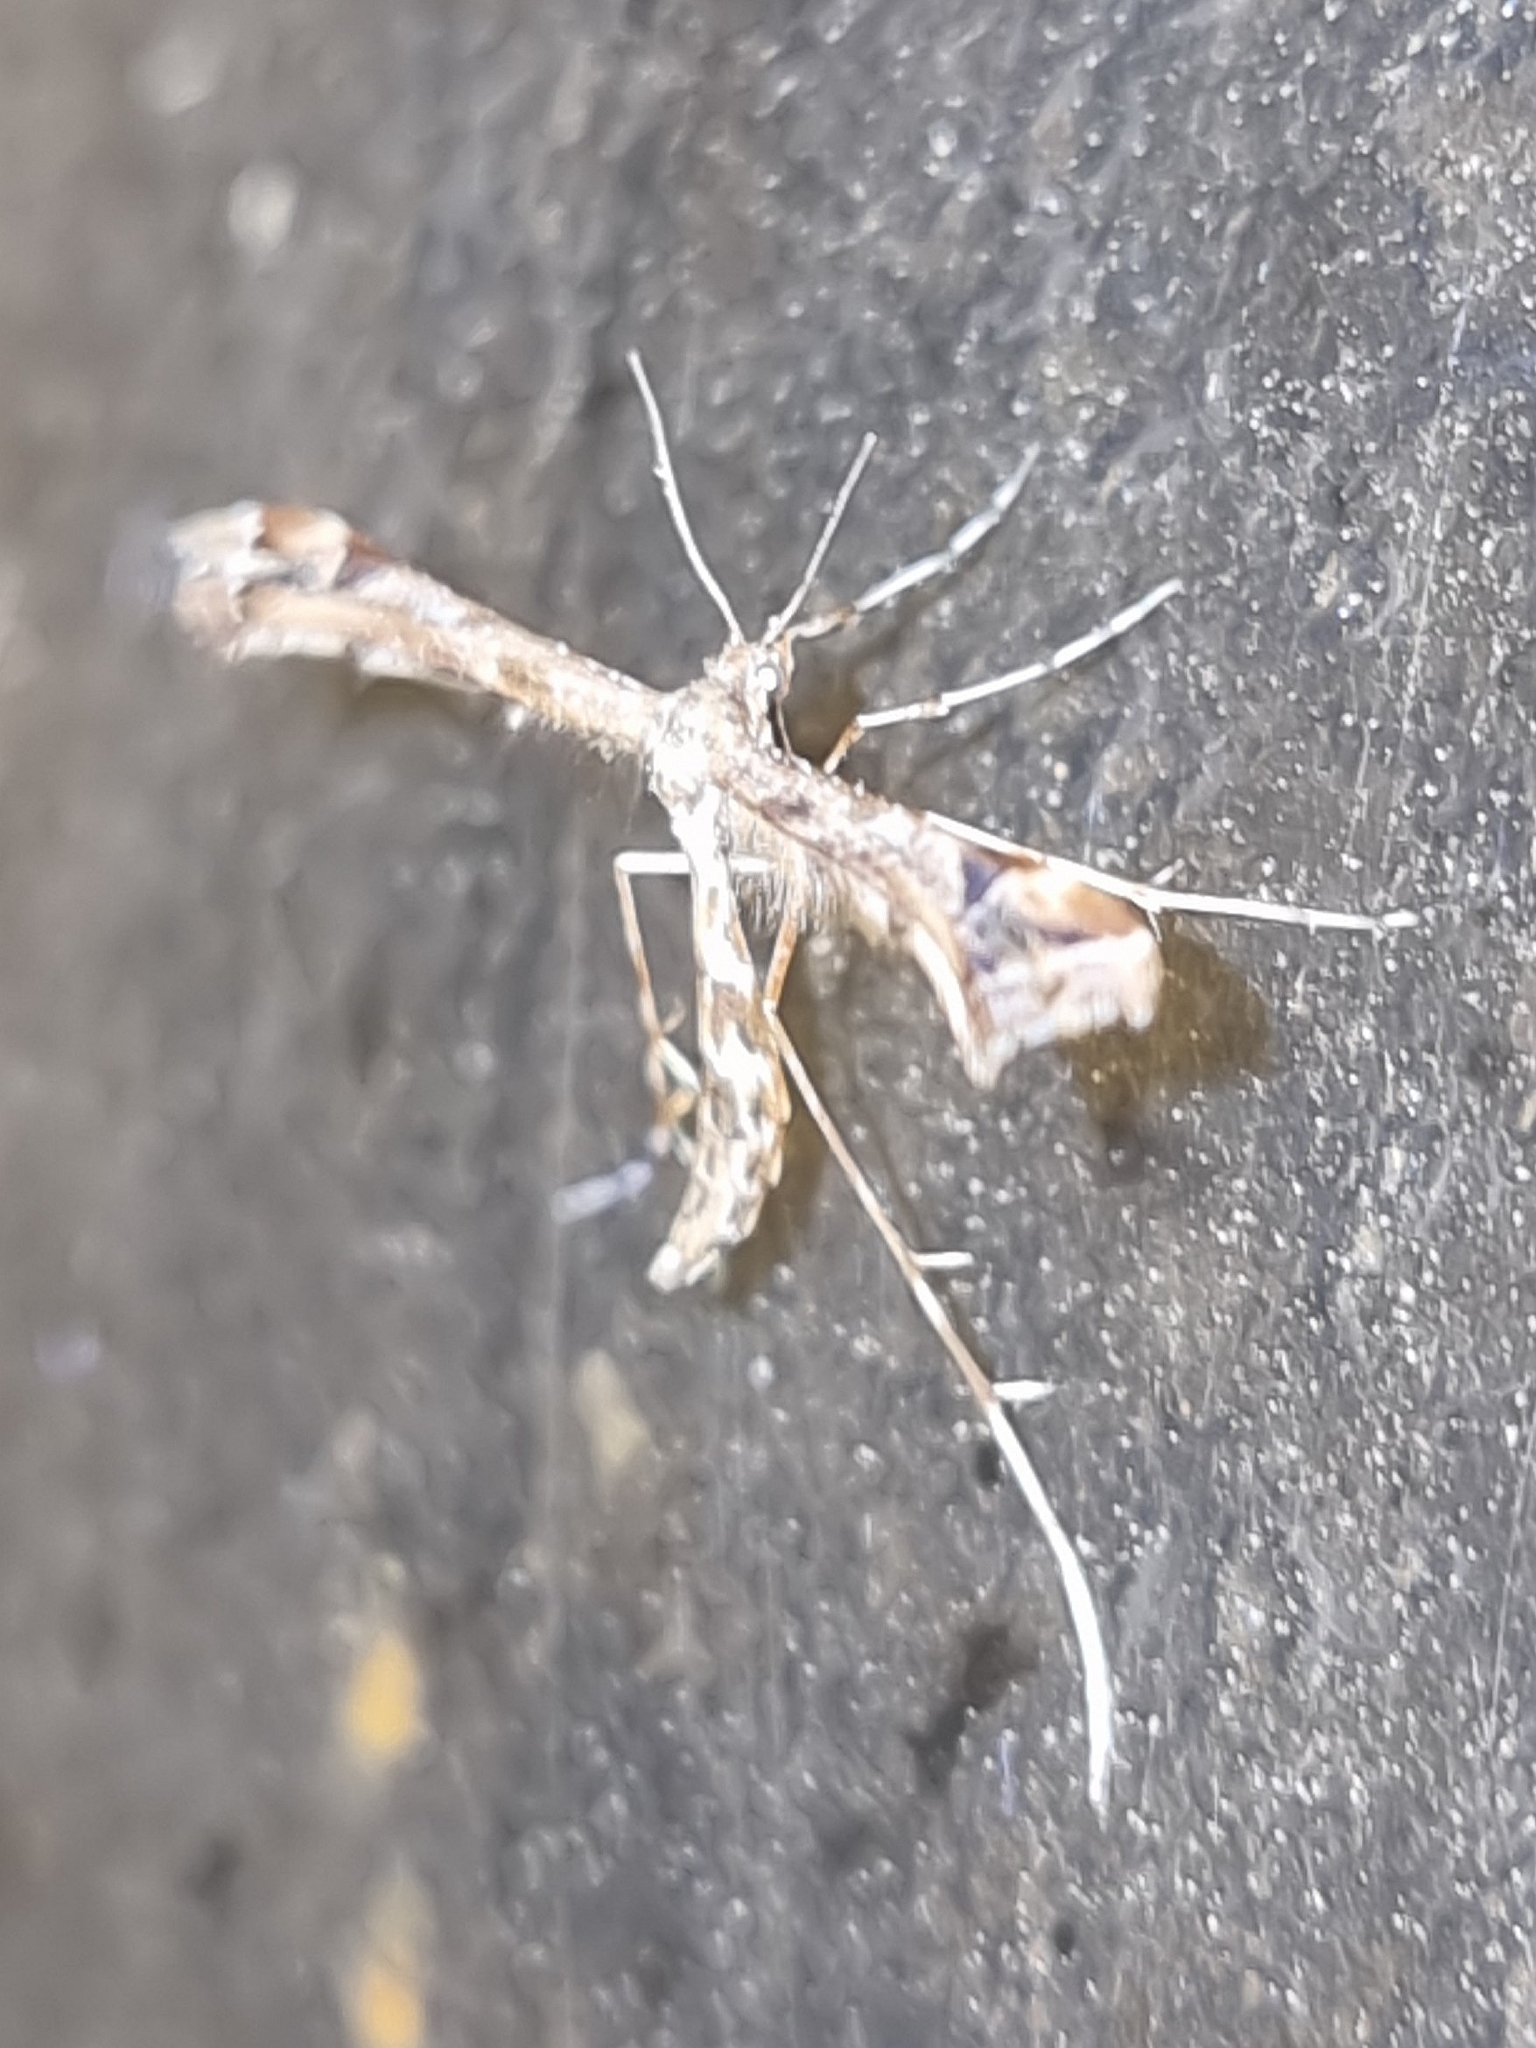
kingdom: Animalia
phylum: Arthropoda
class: Insecta
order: Lepidoptera
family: Pterophoridae
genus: Amblyptilia
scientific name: Amblyptilia acanthadactyla
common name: Beautiful plume
